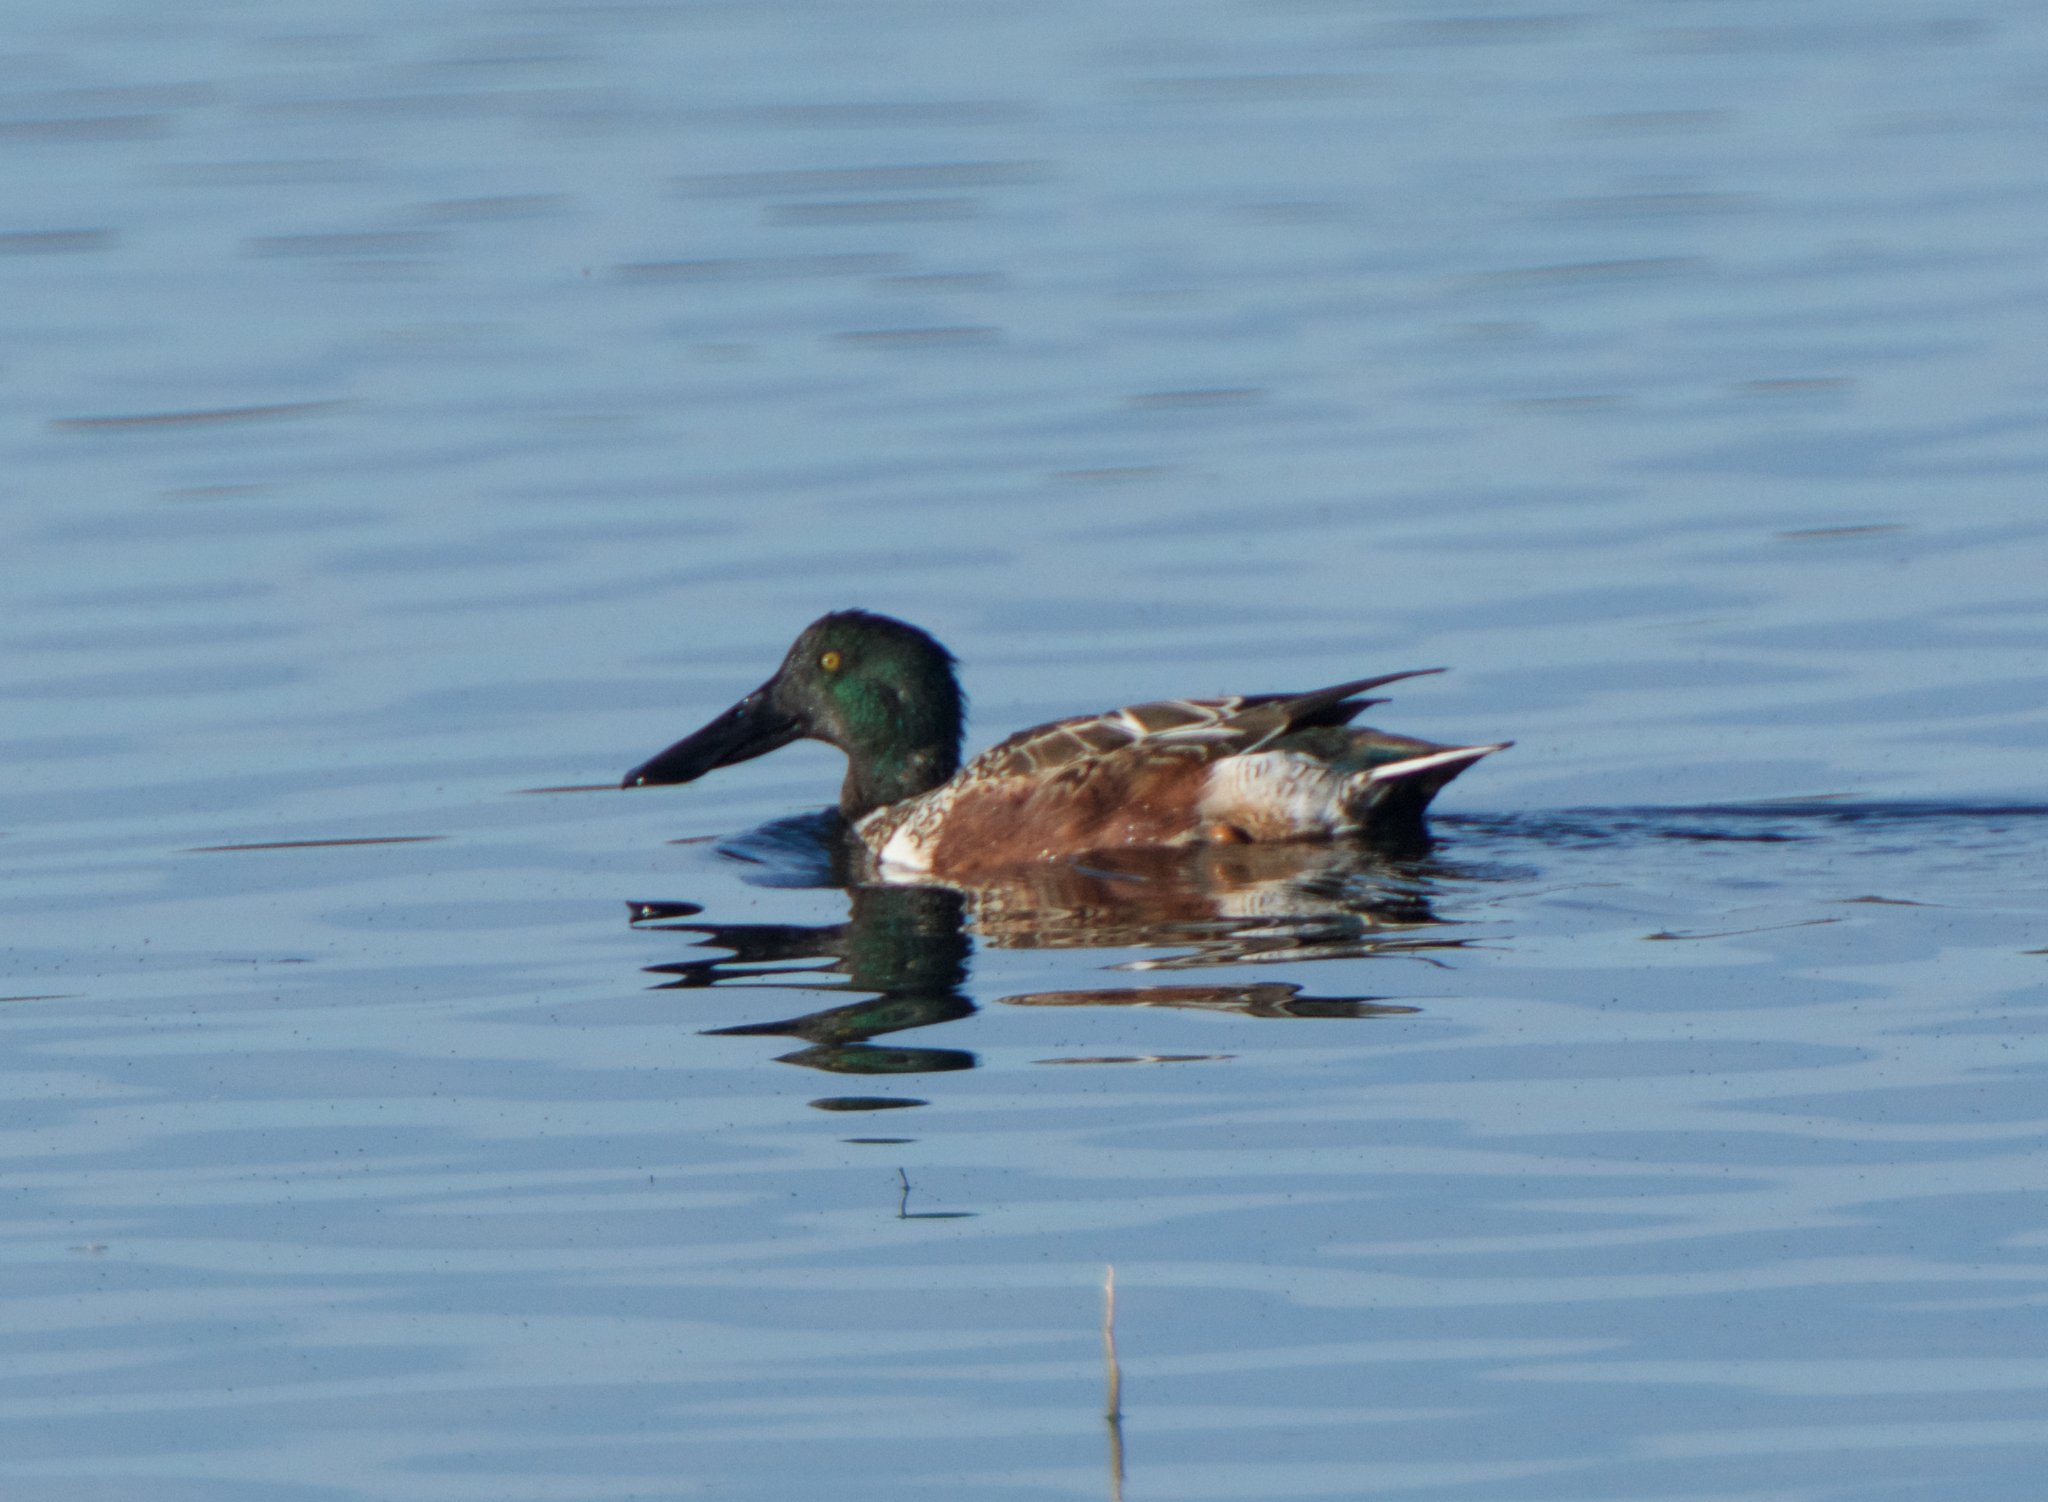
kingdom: Animalia
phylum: Chordata
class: Aves
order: Anseriformes
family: Anatidae
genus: Spatula
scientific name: Spatula clypeata
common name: Northern shoveler
